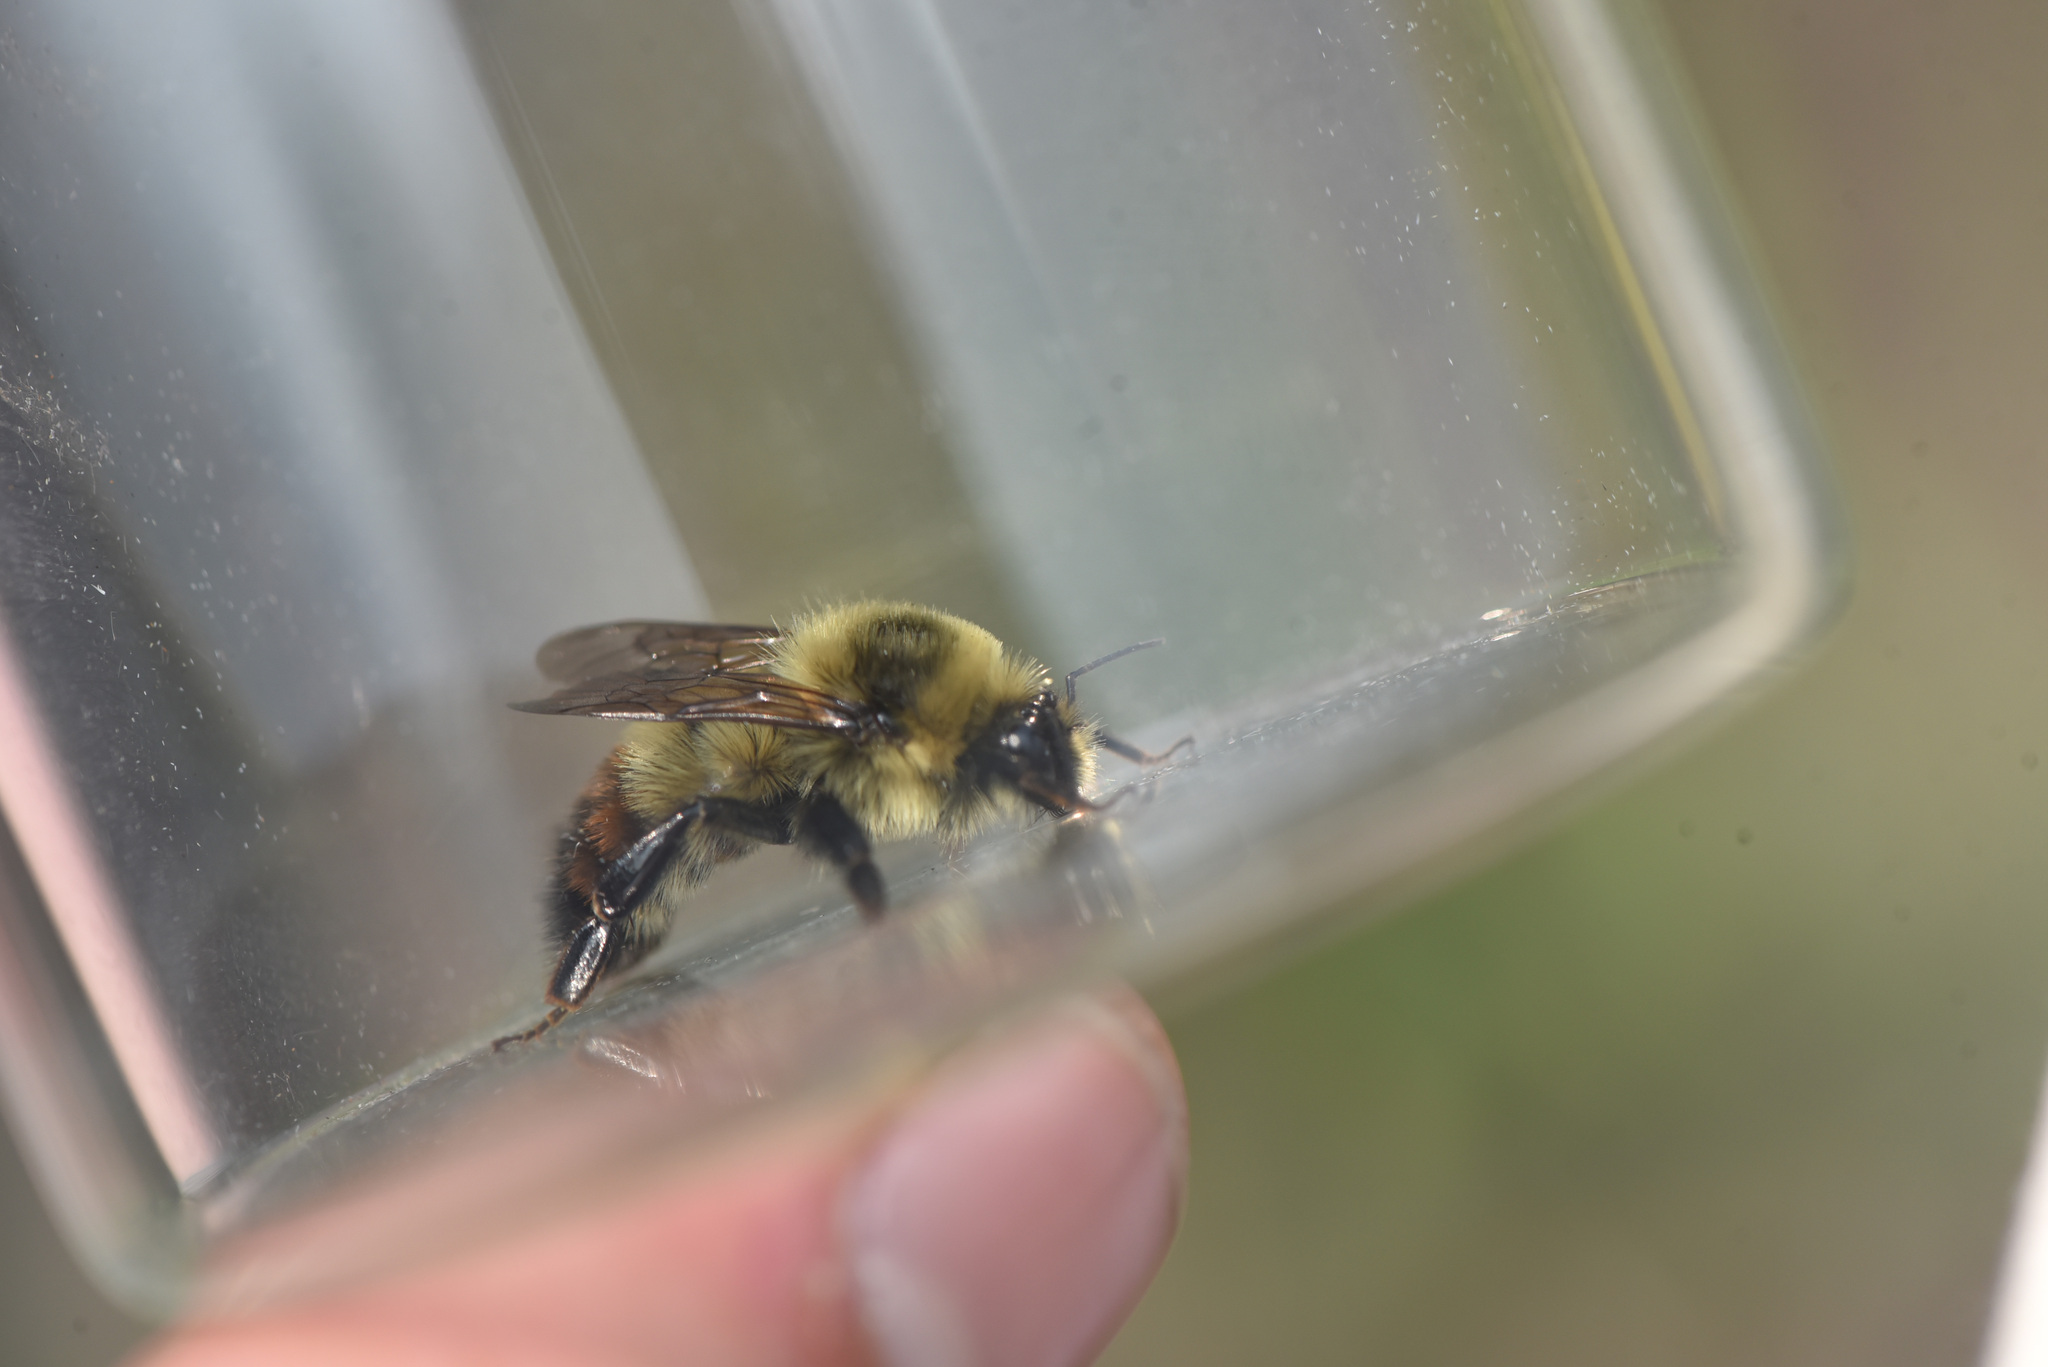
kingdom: Animalia
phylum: Arthropoda
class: Insecta
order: Hymenoptera
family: Apidae
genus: Bombus
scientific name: Bombus rufocinctus
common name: Red-belted bumble bee
